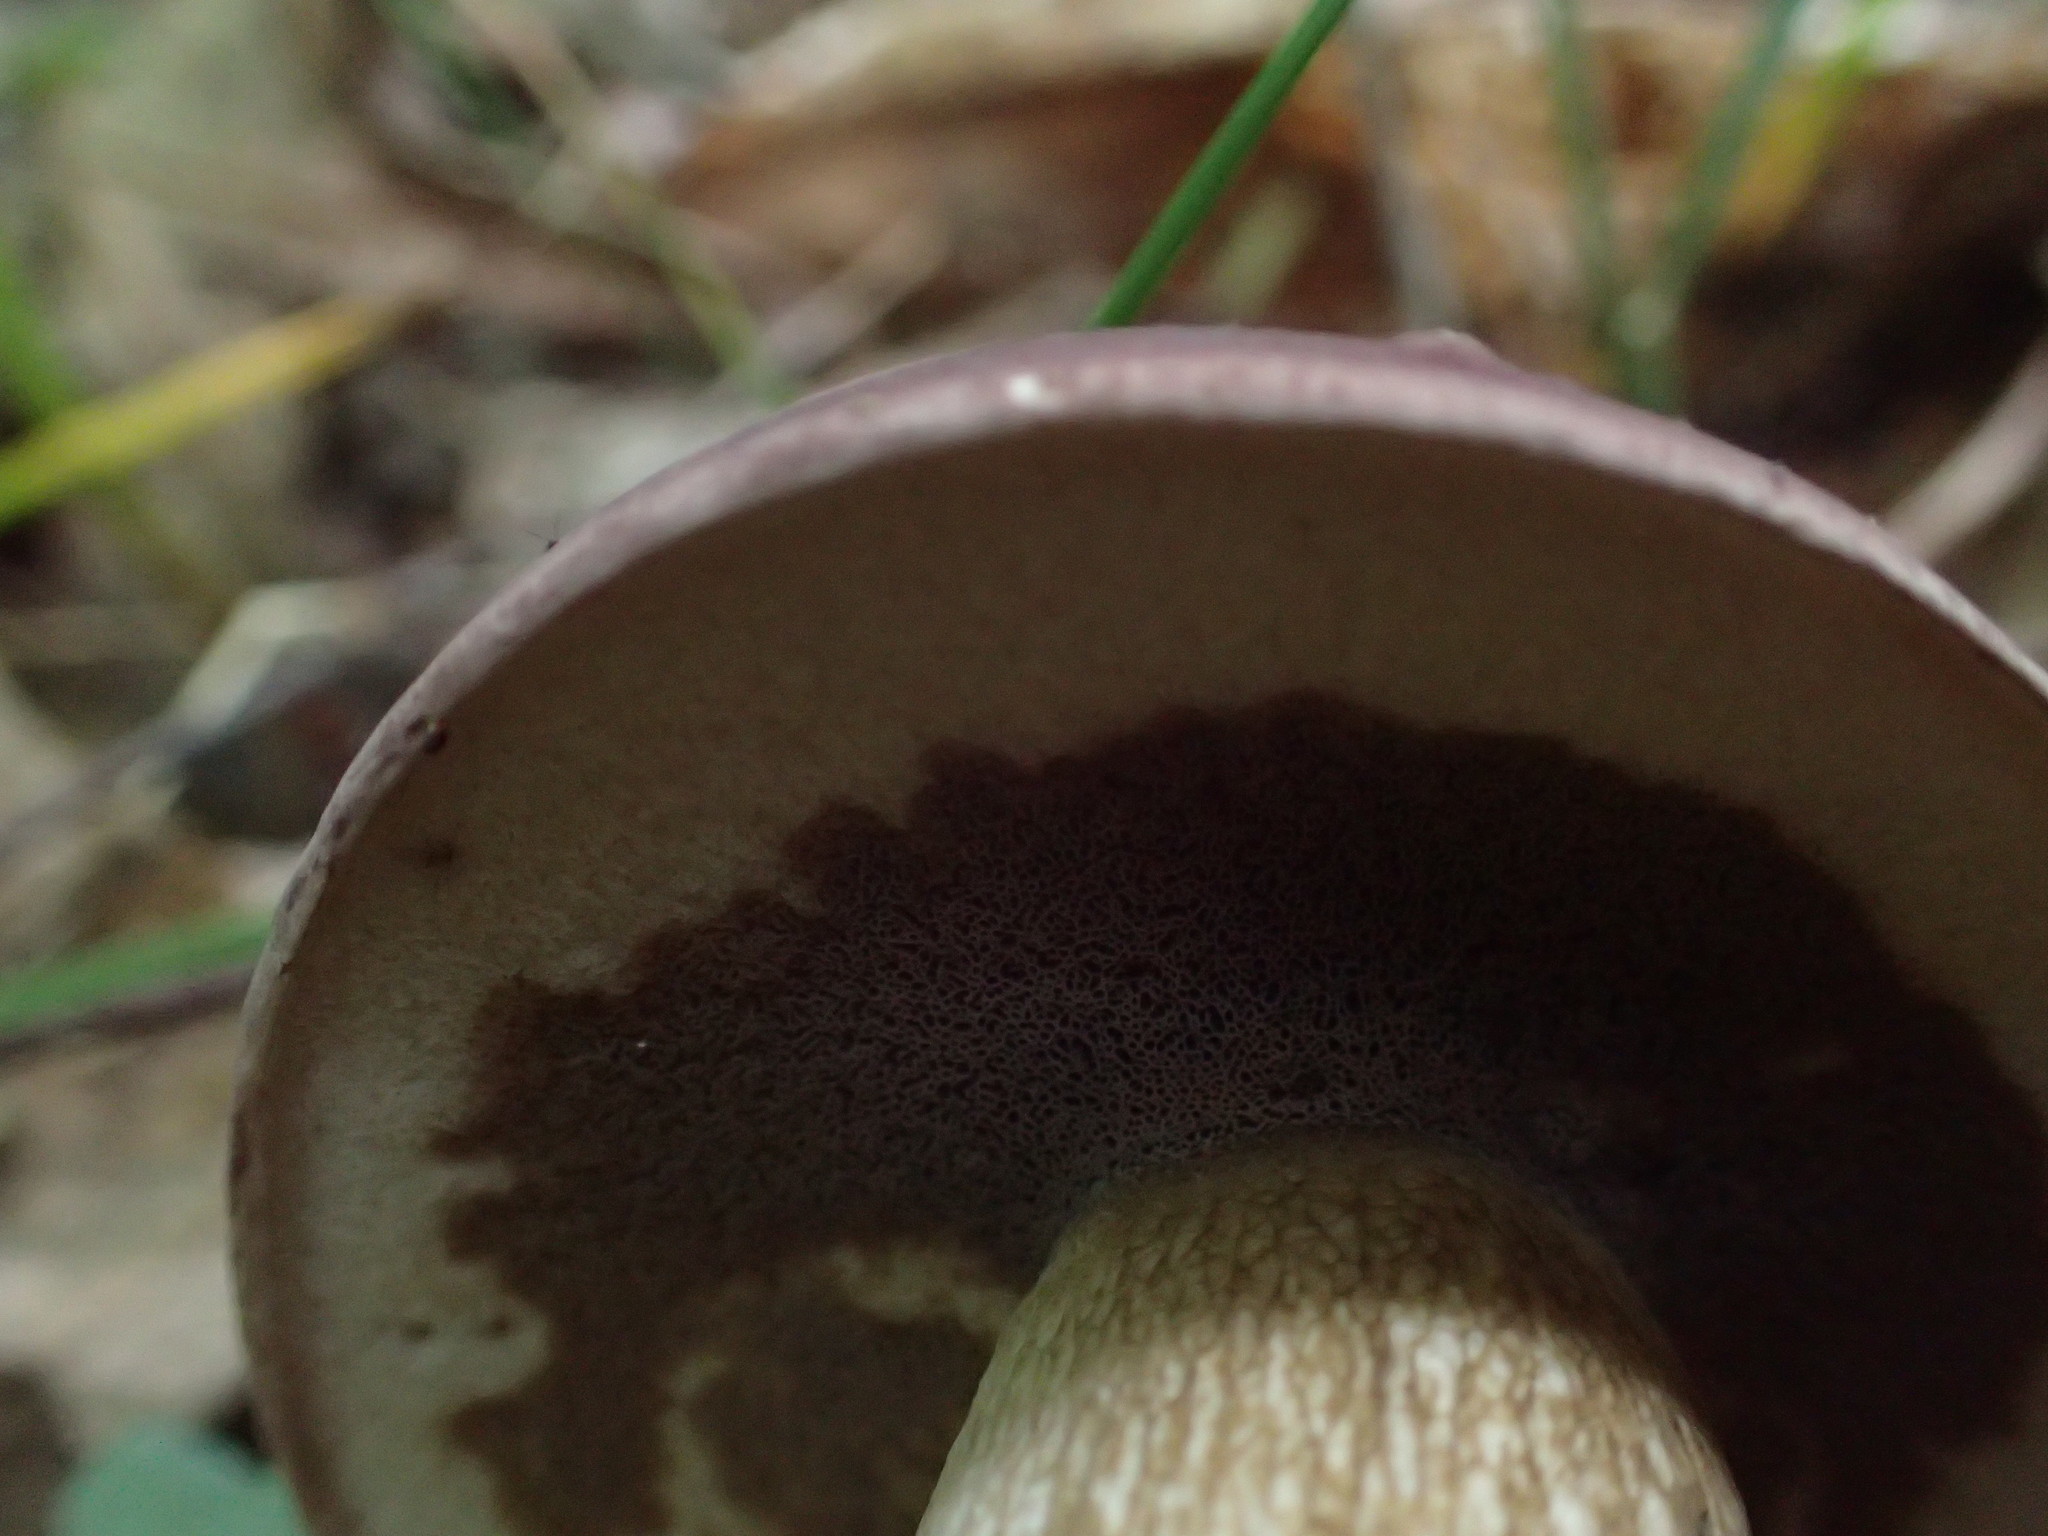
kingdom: Fungi
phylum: Basidiomycota
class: Agaricomycetes
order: Boletales
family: Boletaceae
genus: Tylopilus
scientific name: Tylopilus rubrobrunneus
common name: Reddish brown bitter bolete
